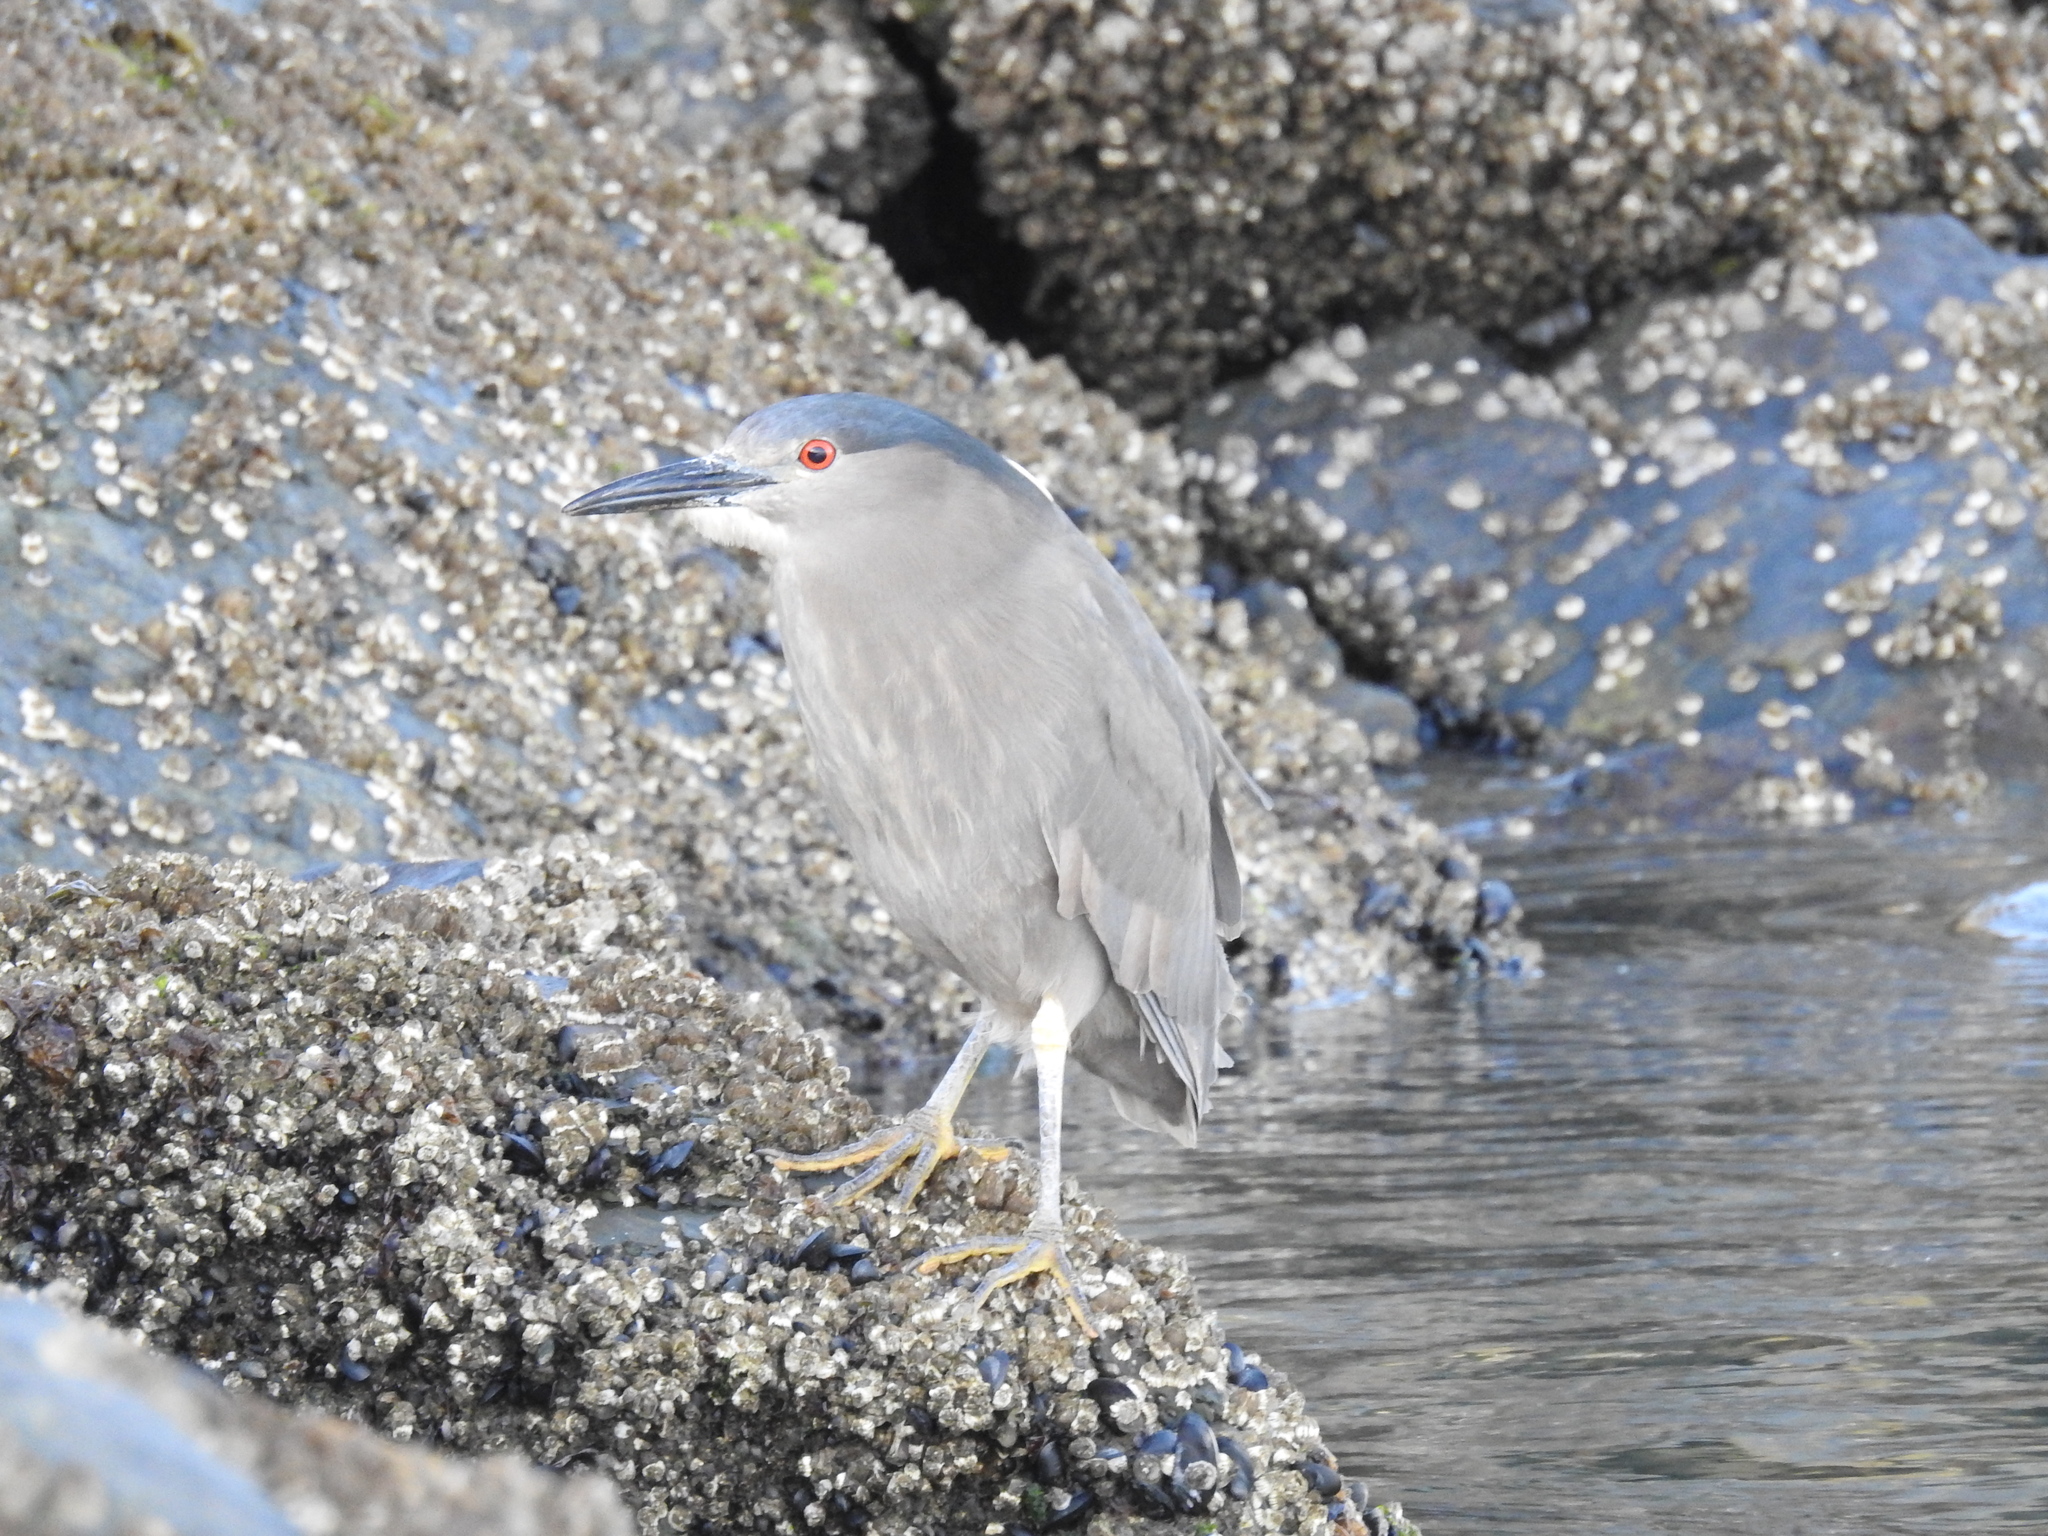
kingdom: Animalia
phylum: Chordata
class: Aves
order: Pelecaniformes
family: Ardeidae
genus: Nycticorax
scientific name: Nycticorax nycticorax
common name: Black-crowned night heron
